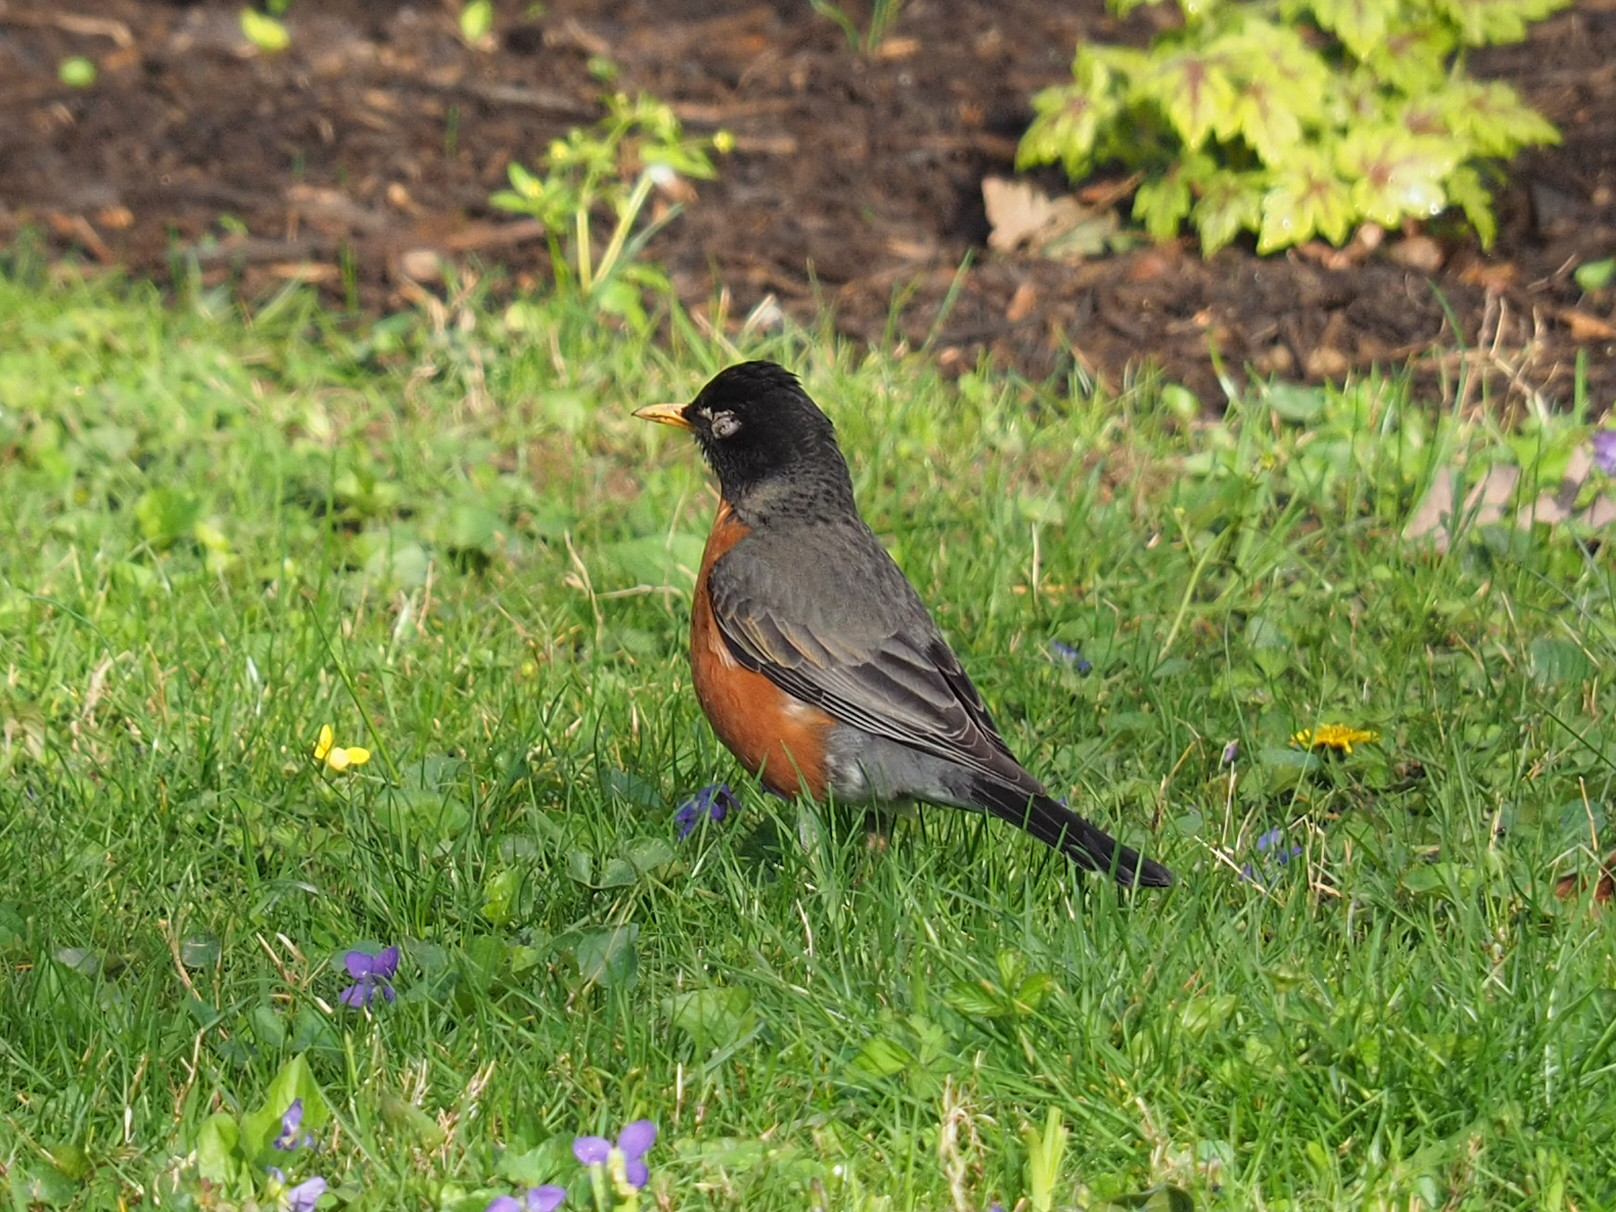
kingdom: Animalia
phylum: Chordata
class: Aves
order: Passeriformes
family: Turdidae
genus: Turdus
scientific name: Turdus migratorius
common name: American robin
